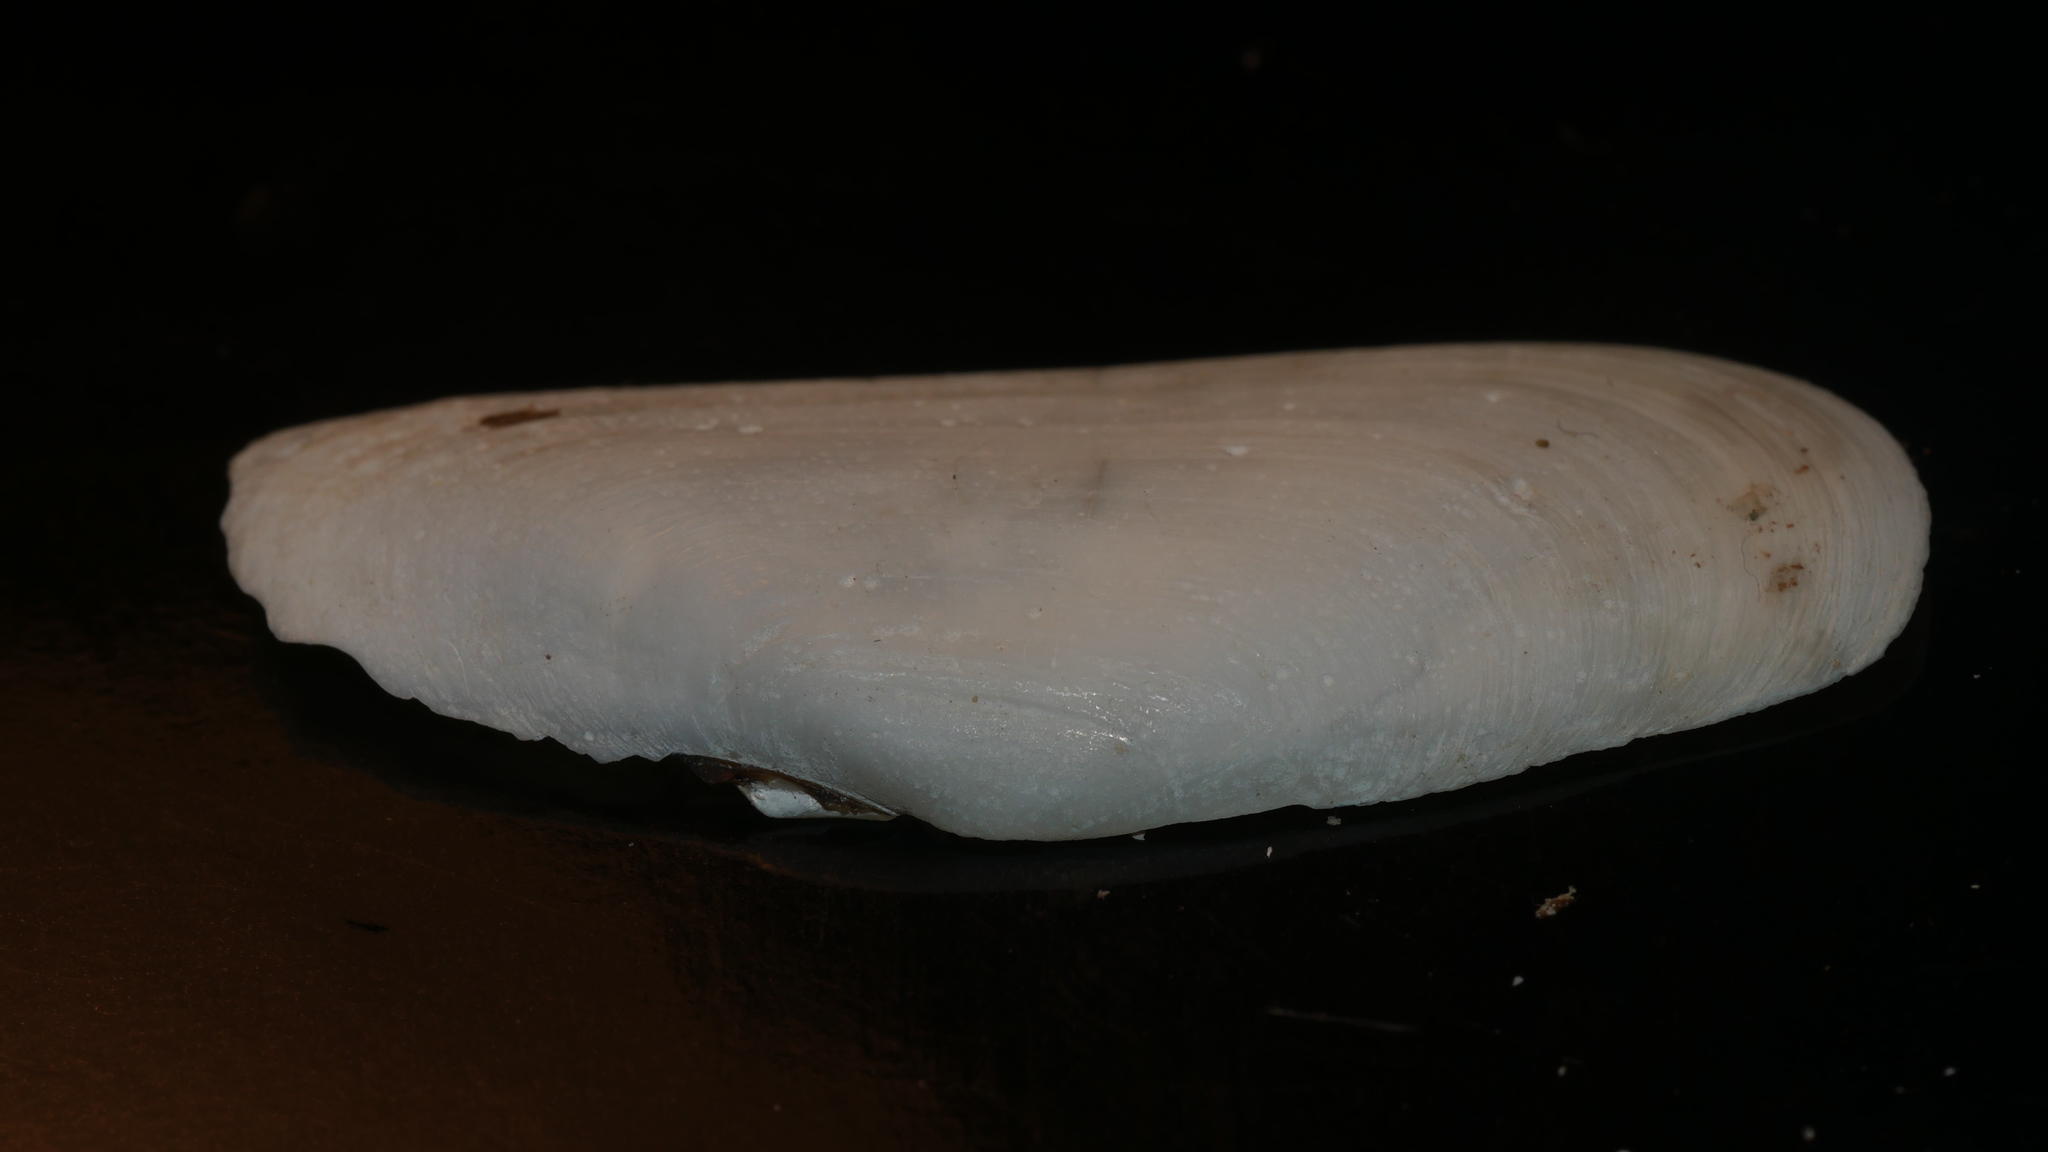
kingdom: Animalia
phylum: Mollusca
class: Bivalvia
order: Cardiida
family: Solecurtidae
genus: Tagelus
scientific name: Tagelus plebeius
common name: Stout tagelus
